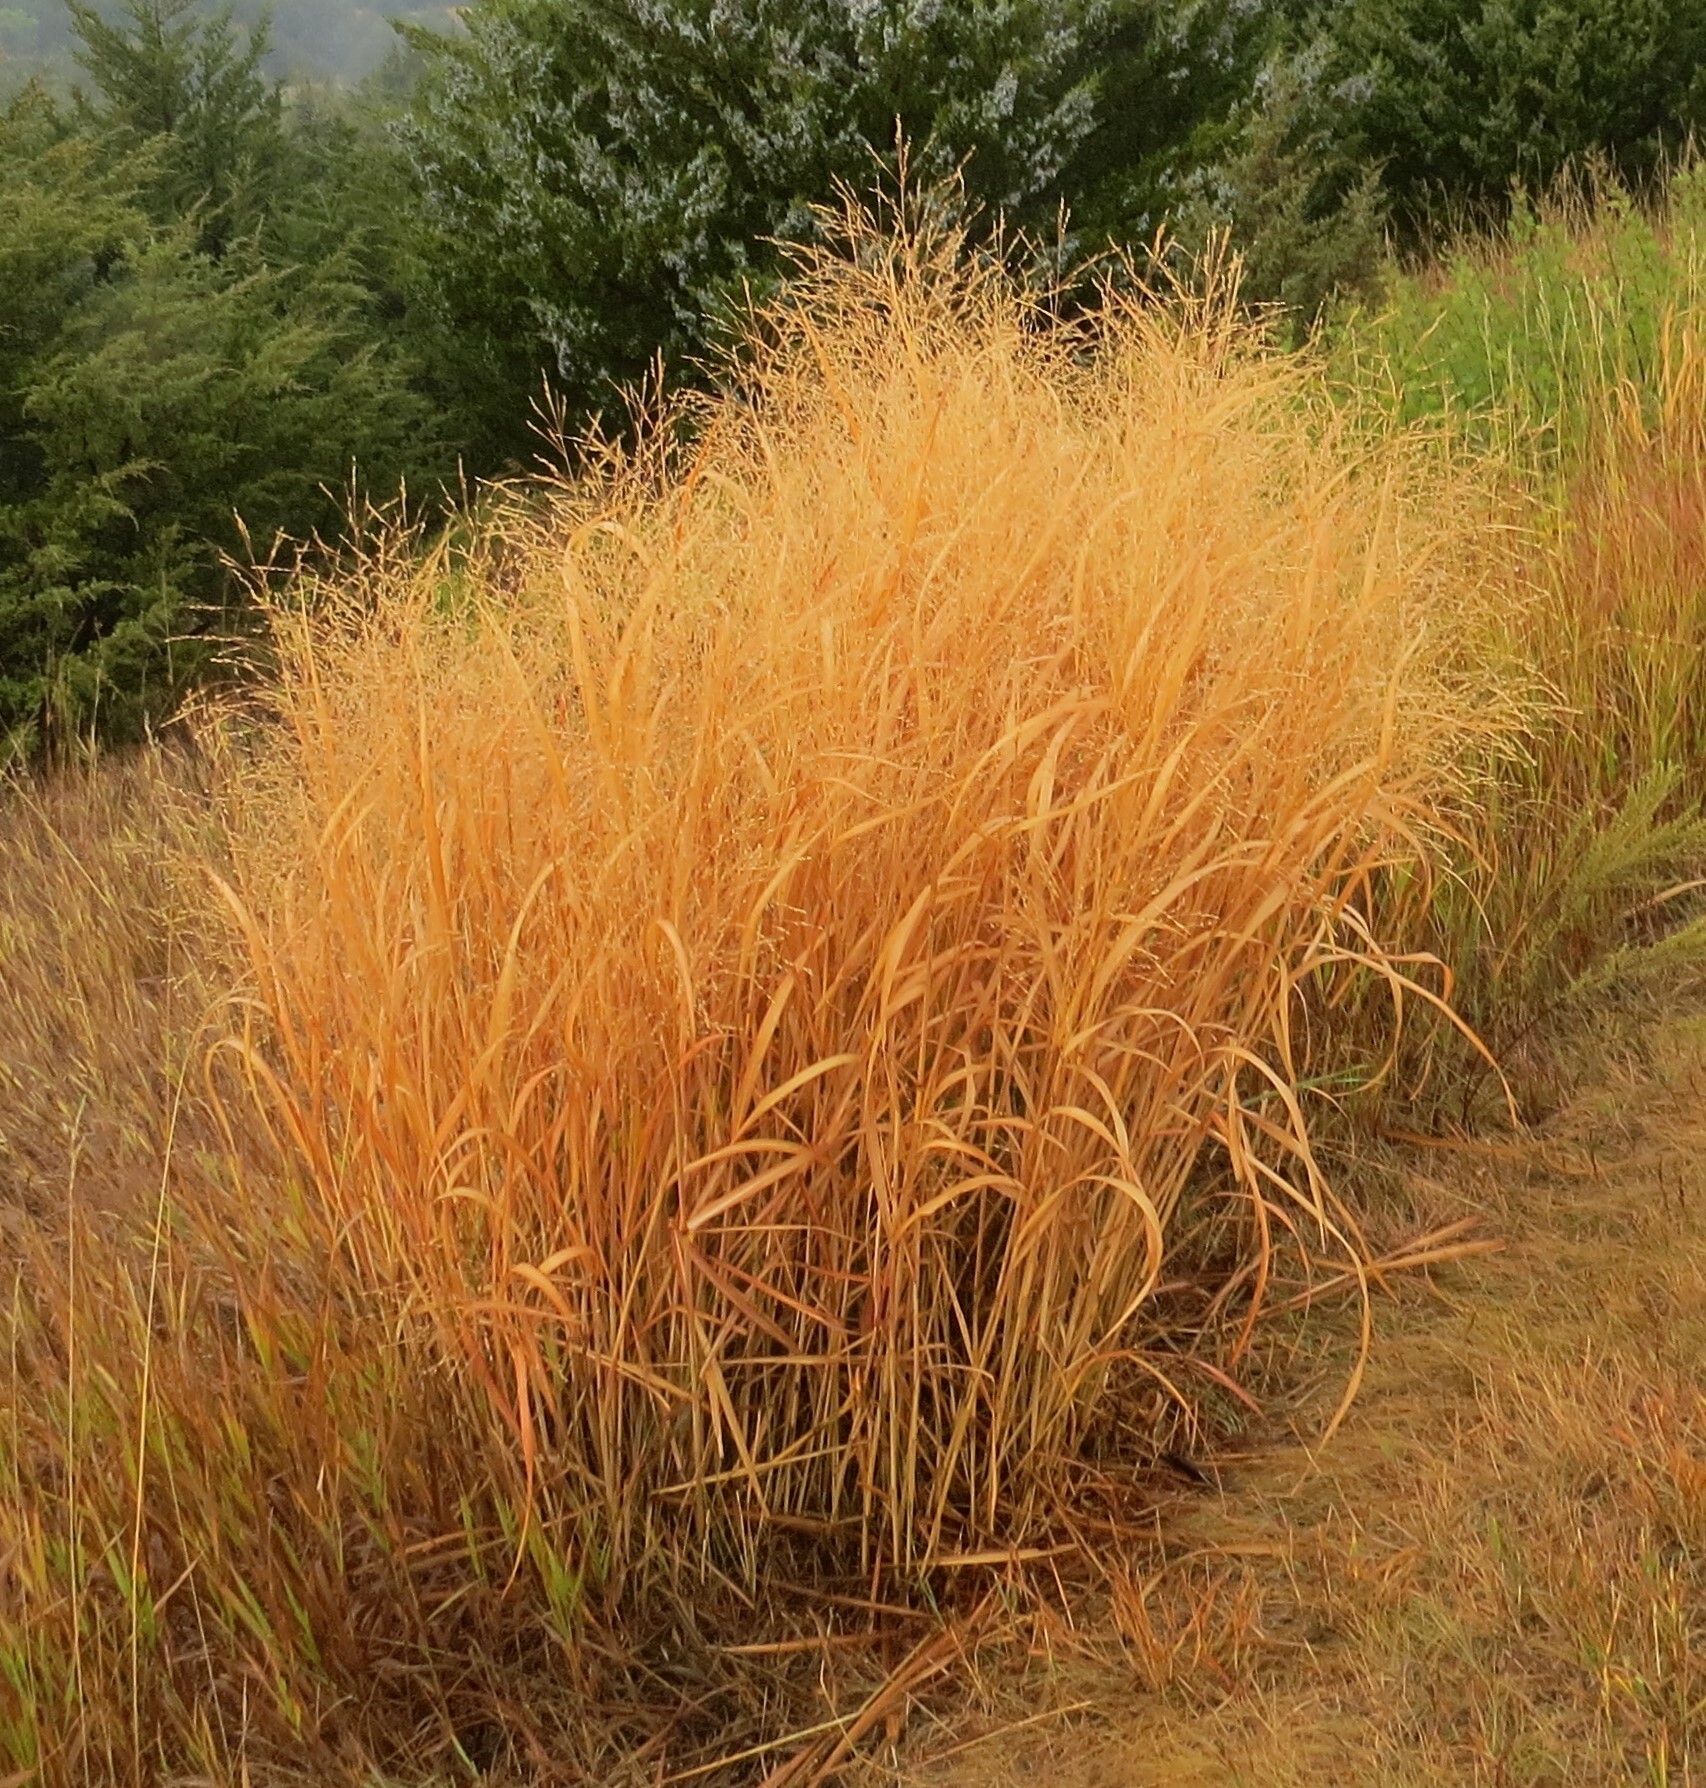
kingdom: Plantae
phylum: Tracheophyta
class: Liliopsida
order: Poales
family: Poaceae
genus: Panicum
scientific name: Panicum virgatum
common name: Switchgrass
